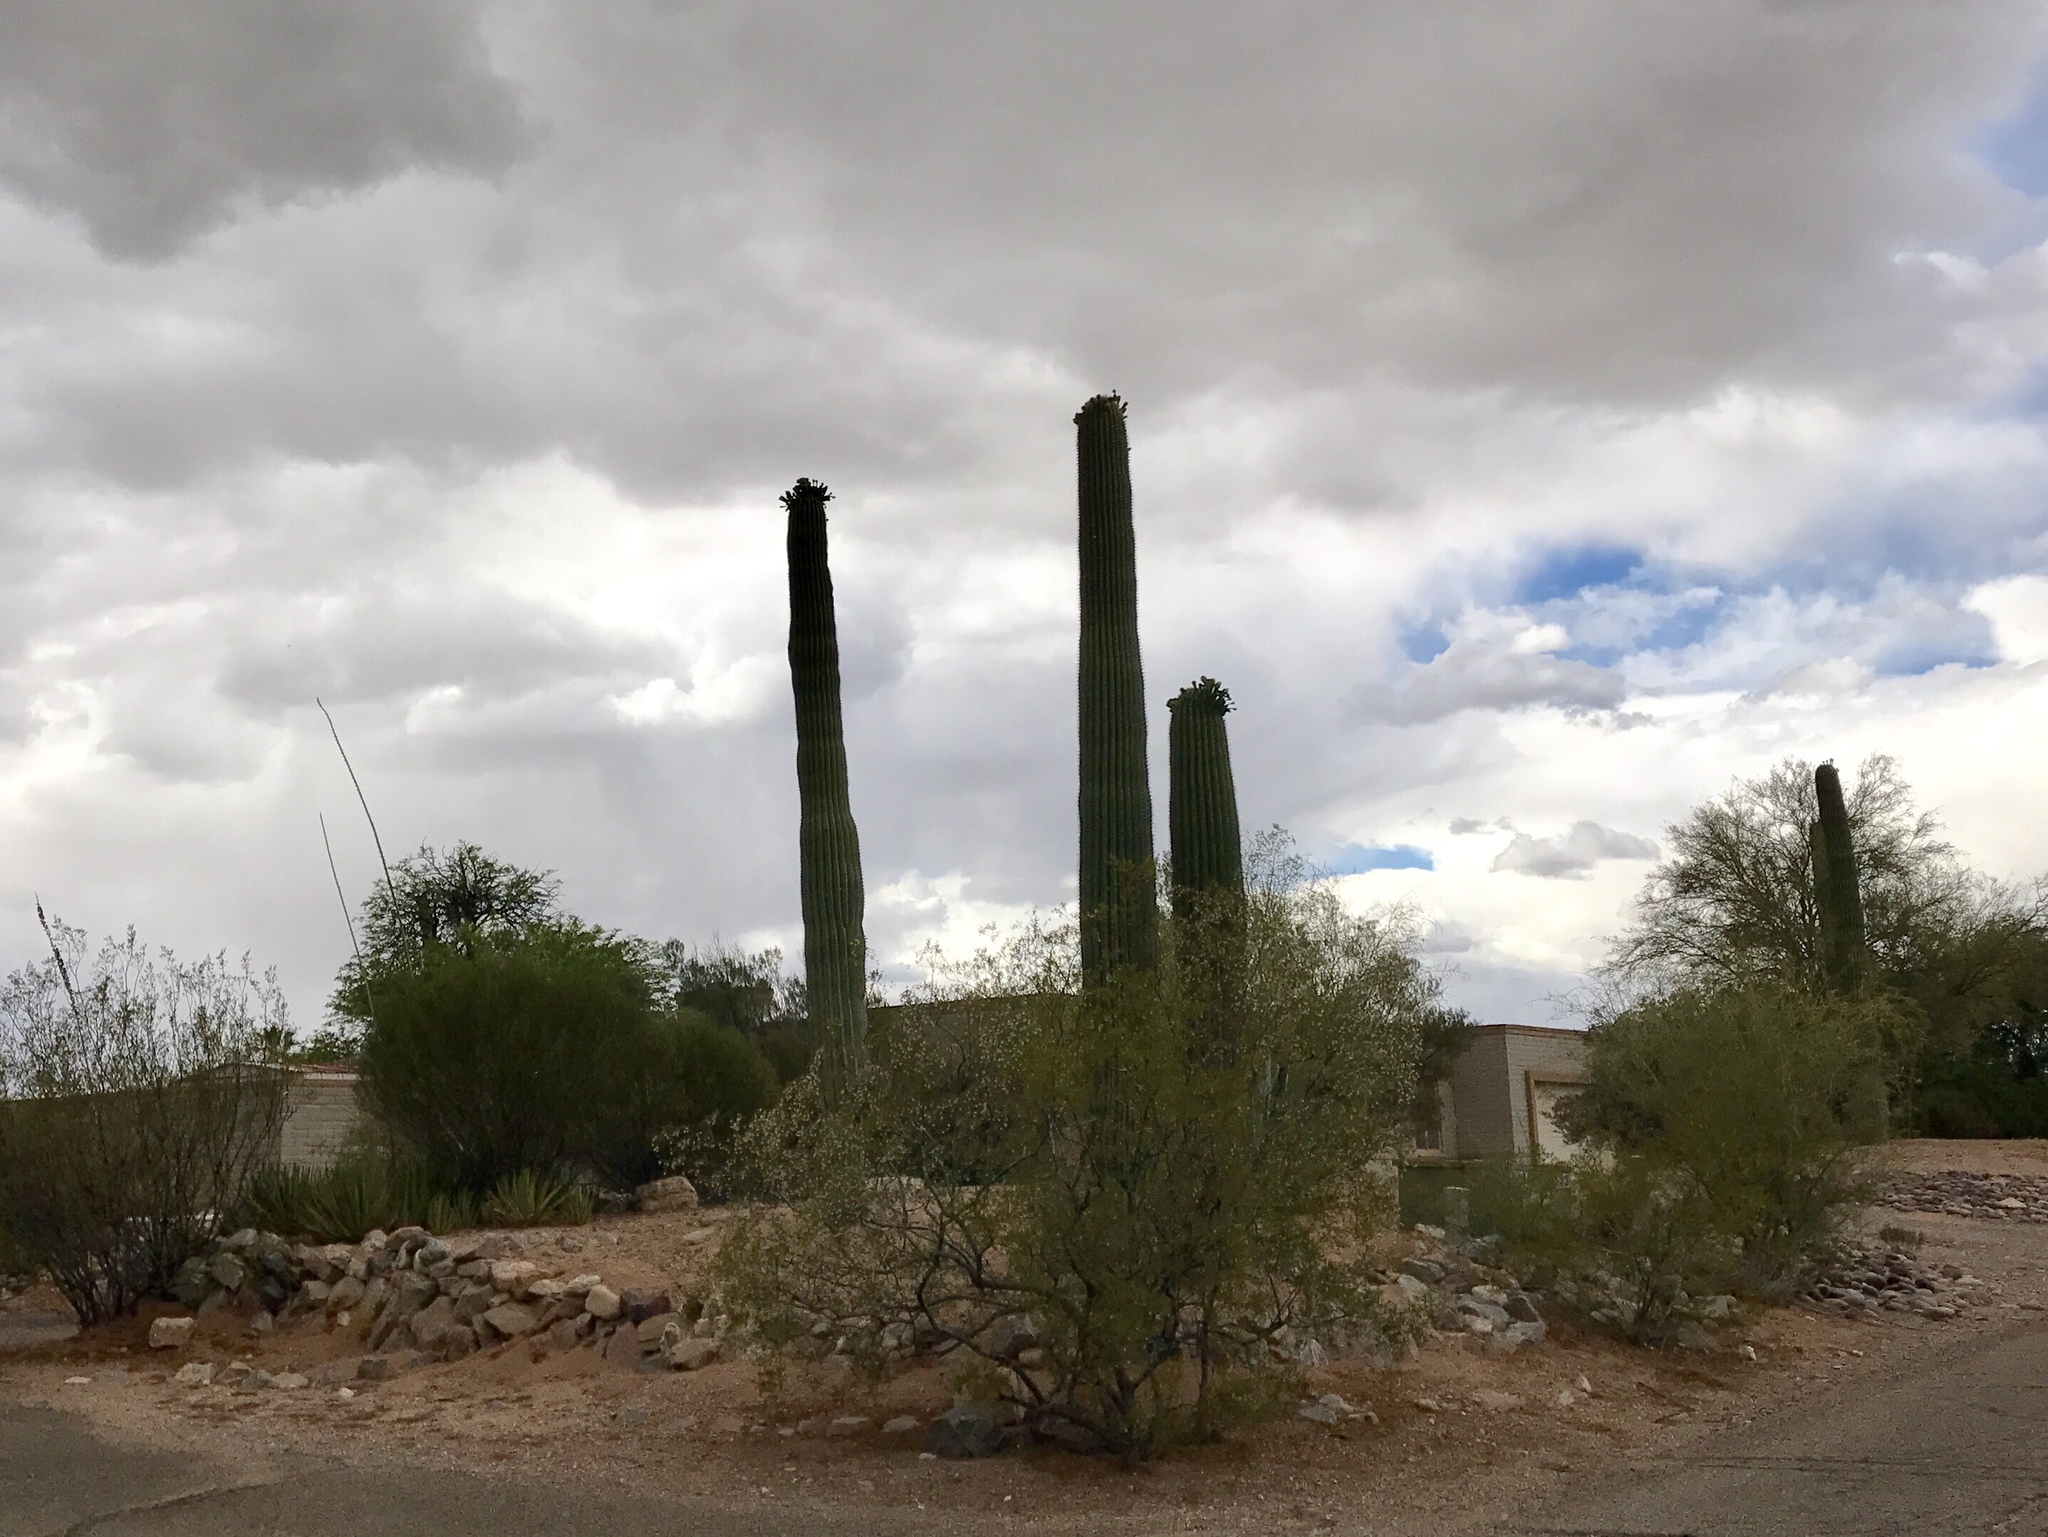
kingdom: Plantae
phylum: Tracheophyta
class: Magnoliopsida
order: Caryophyllales
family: Cactaceae
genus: Carnegiea
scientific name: Carnegiea gigantea
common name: Saguaro
